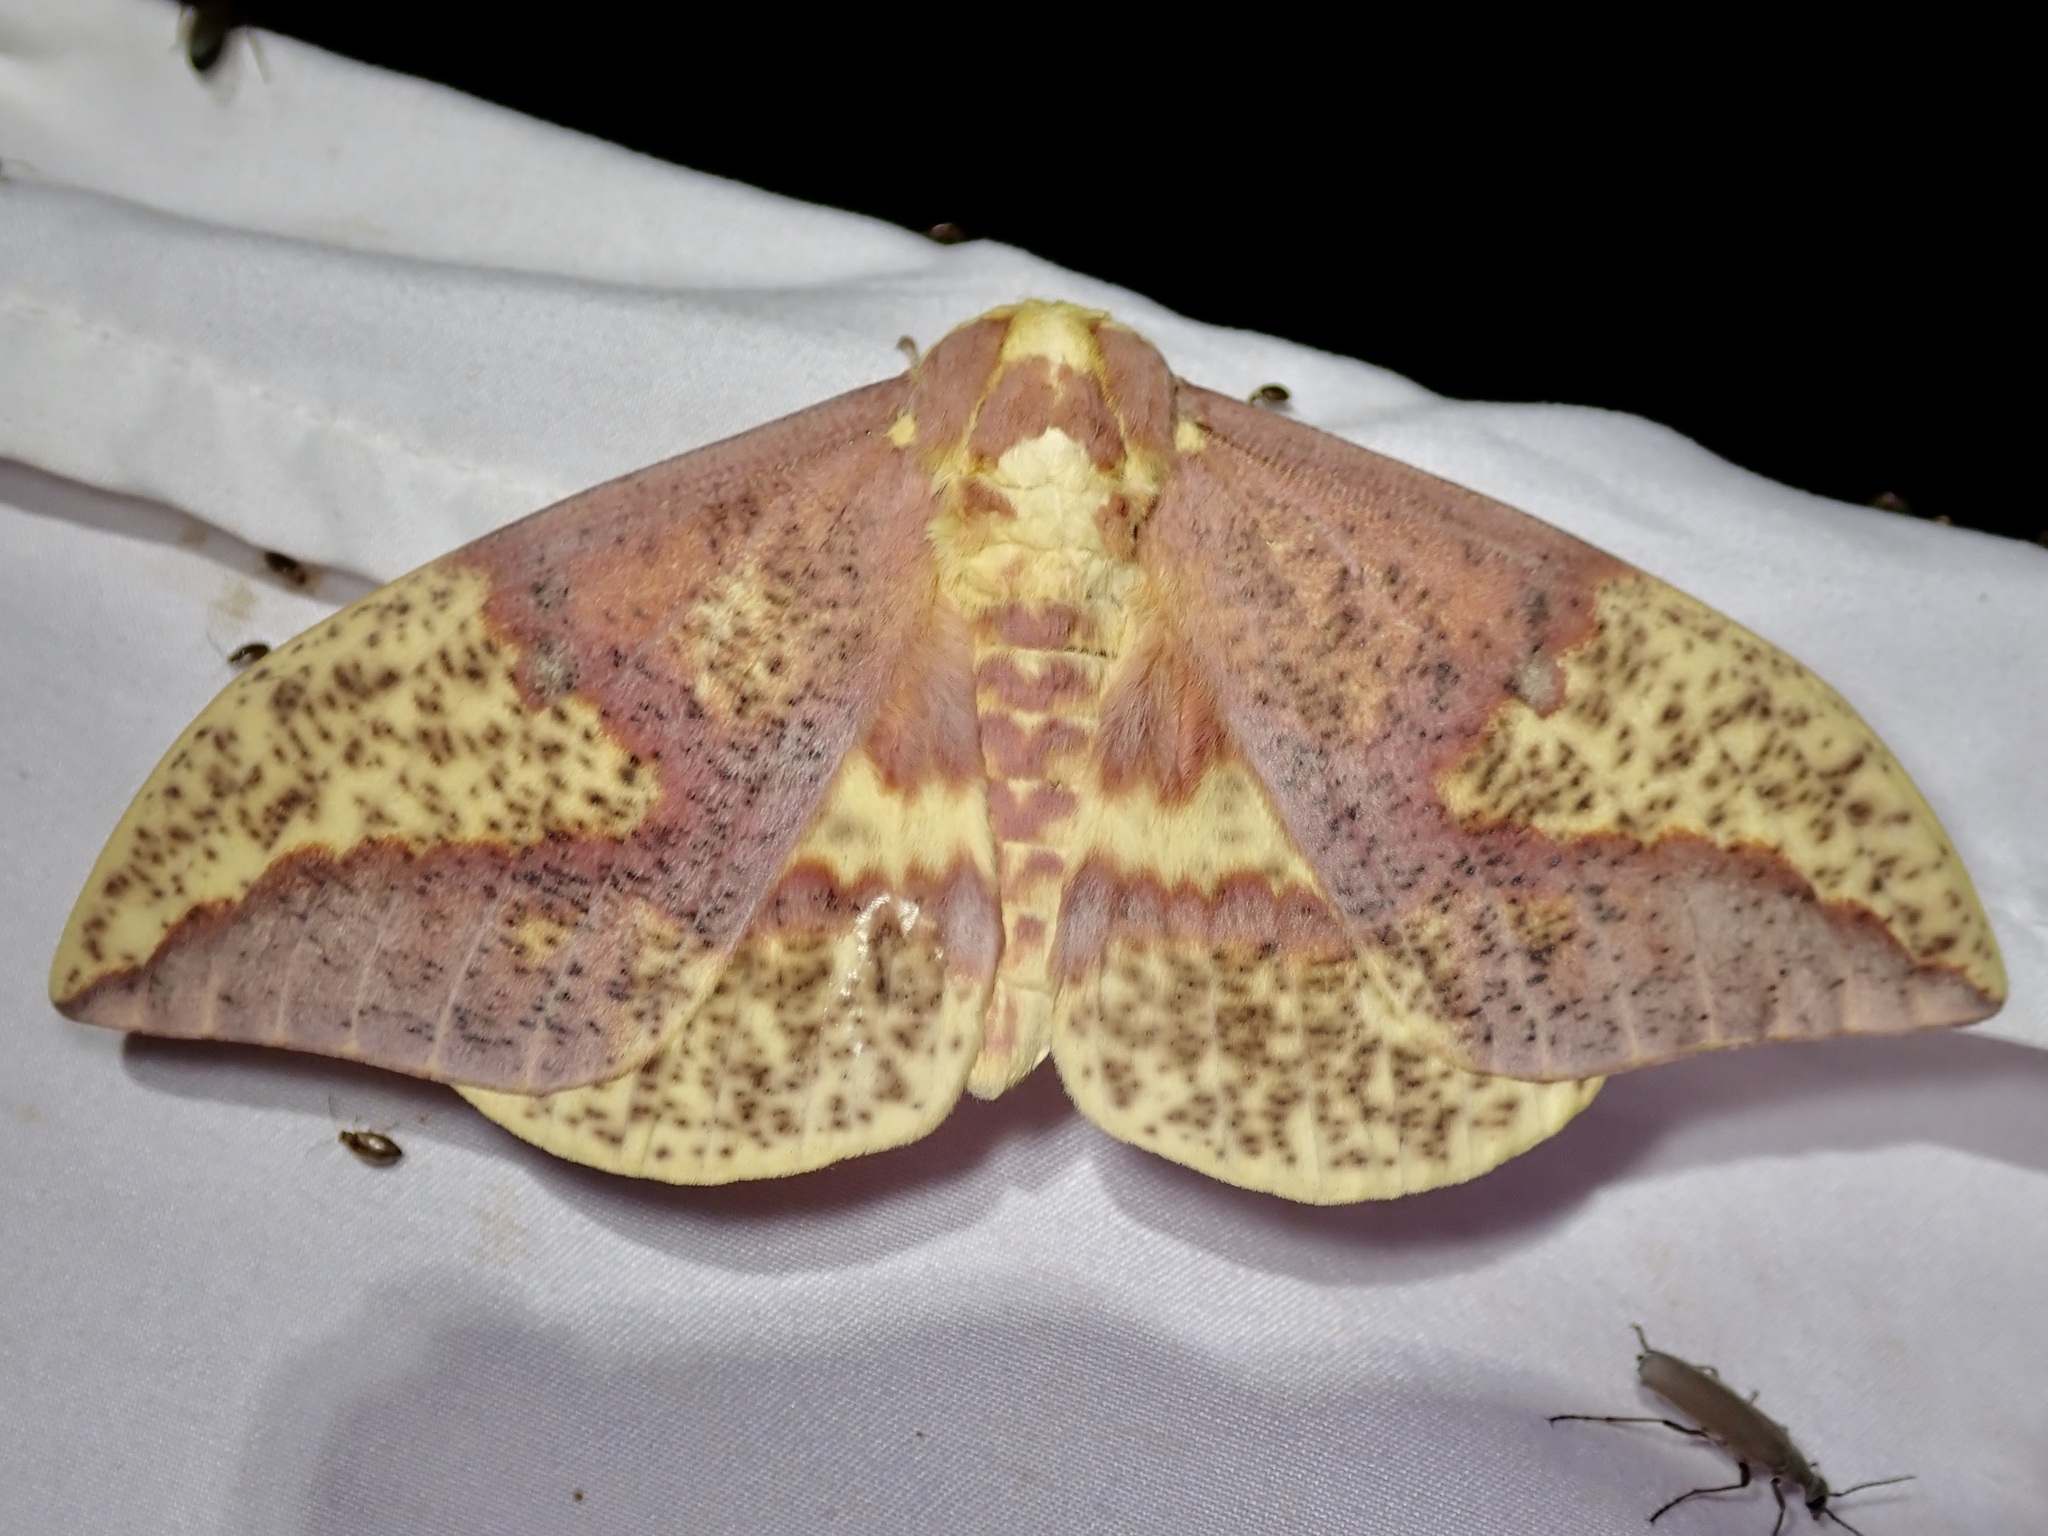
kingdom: Animalia
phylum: Arthropoda
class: Insecta
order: Lepidoptera
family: Saturniidae
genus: Eacles
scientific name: Eacles oslari
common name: Oslar's imperial moth
